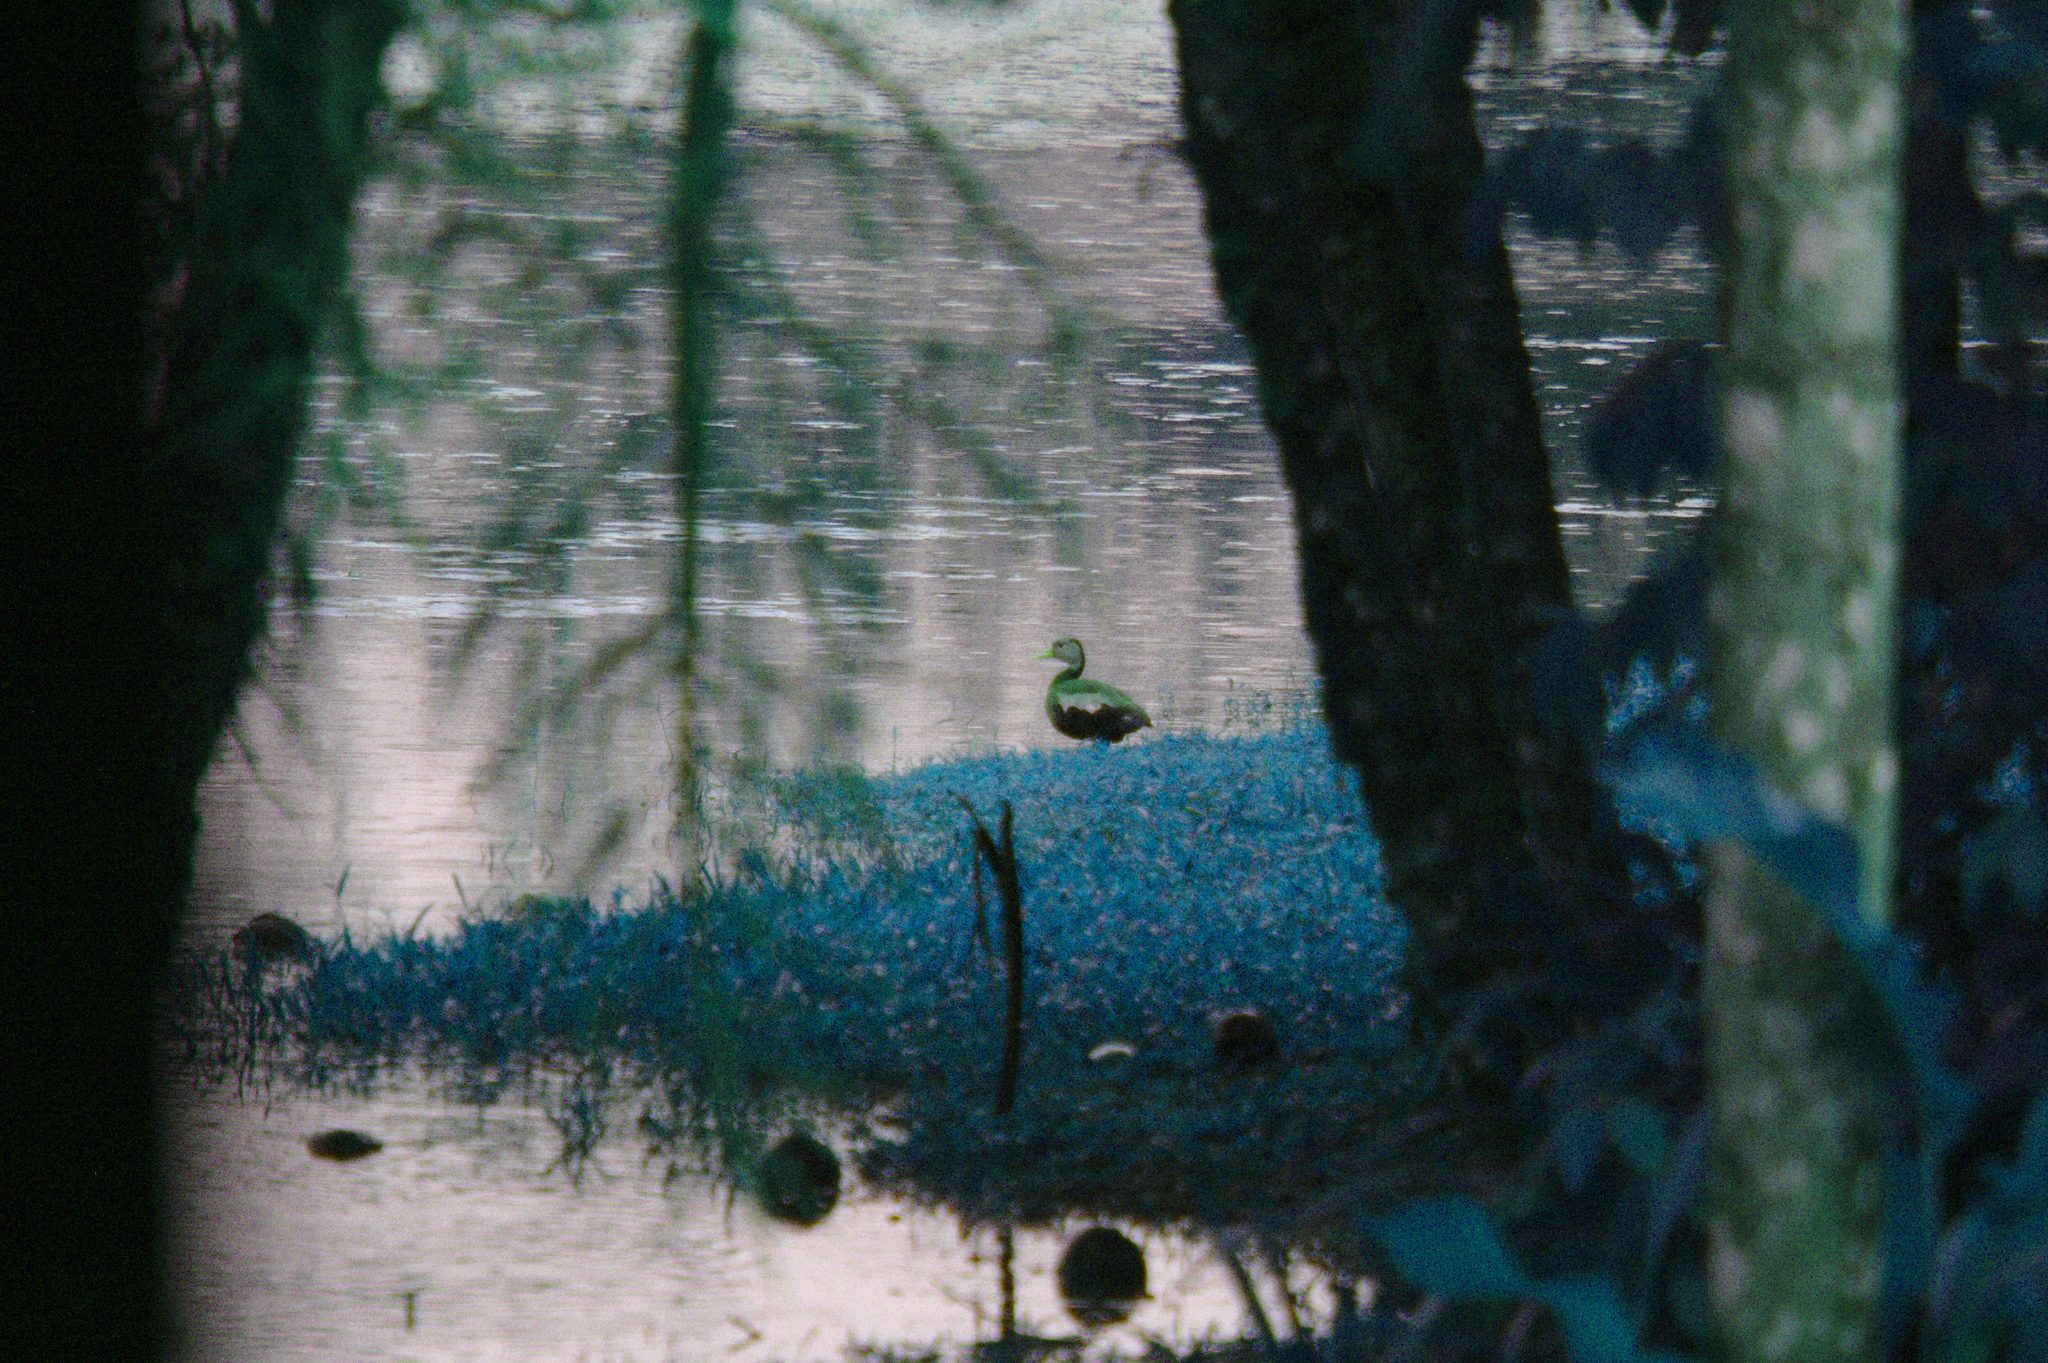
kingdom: Animalia
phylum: Chordata
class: Aves
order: Anseriformes
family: Anatidae
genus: Dendrocygna
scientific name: Dendrocygna autumnalis
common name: Black-bellied whistling duck
